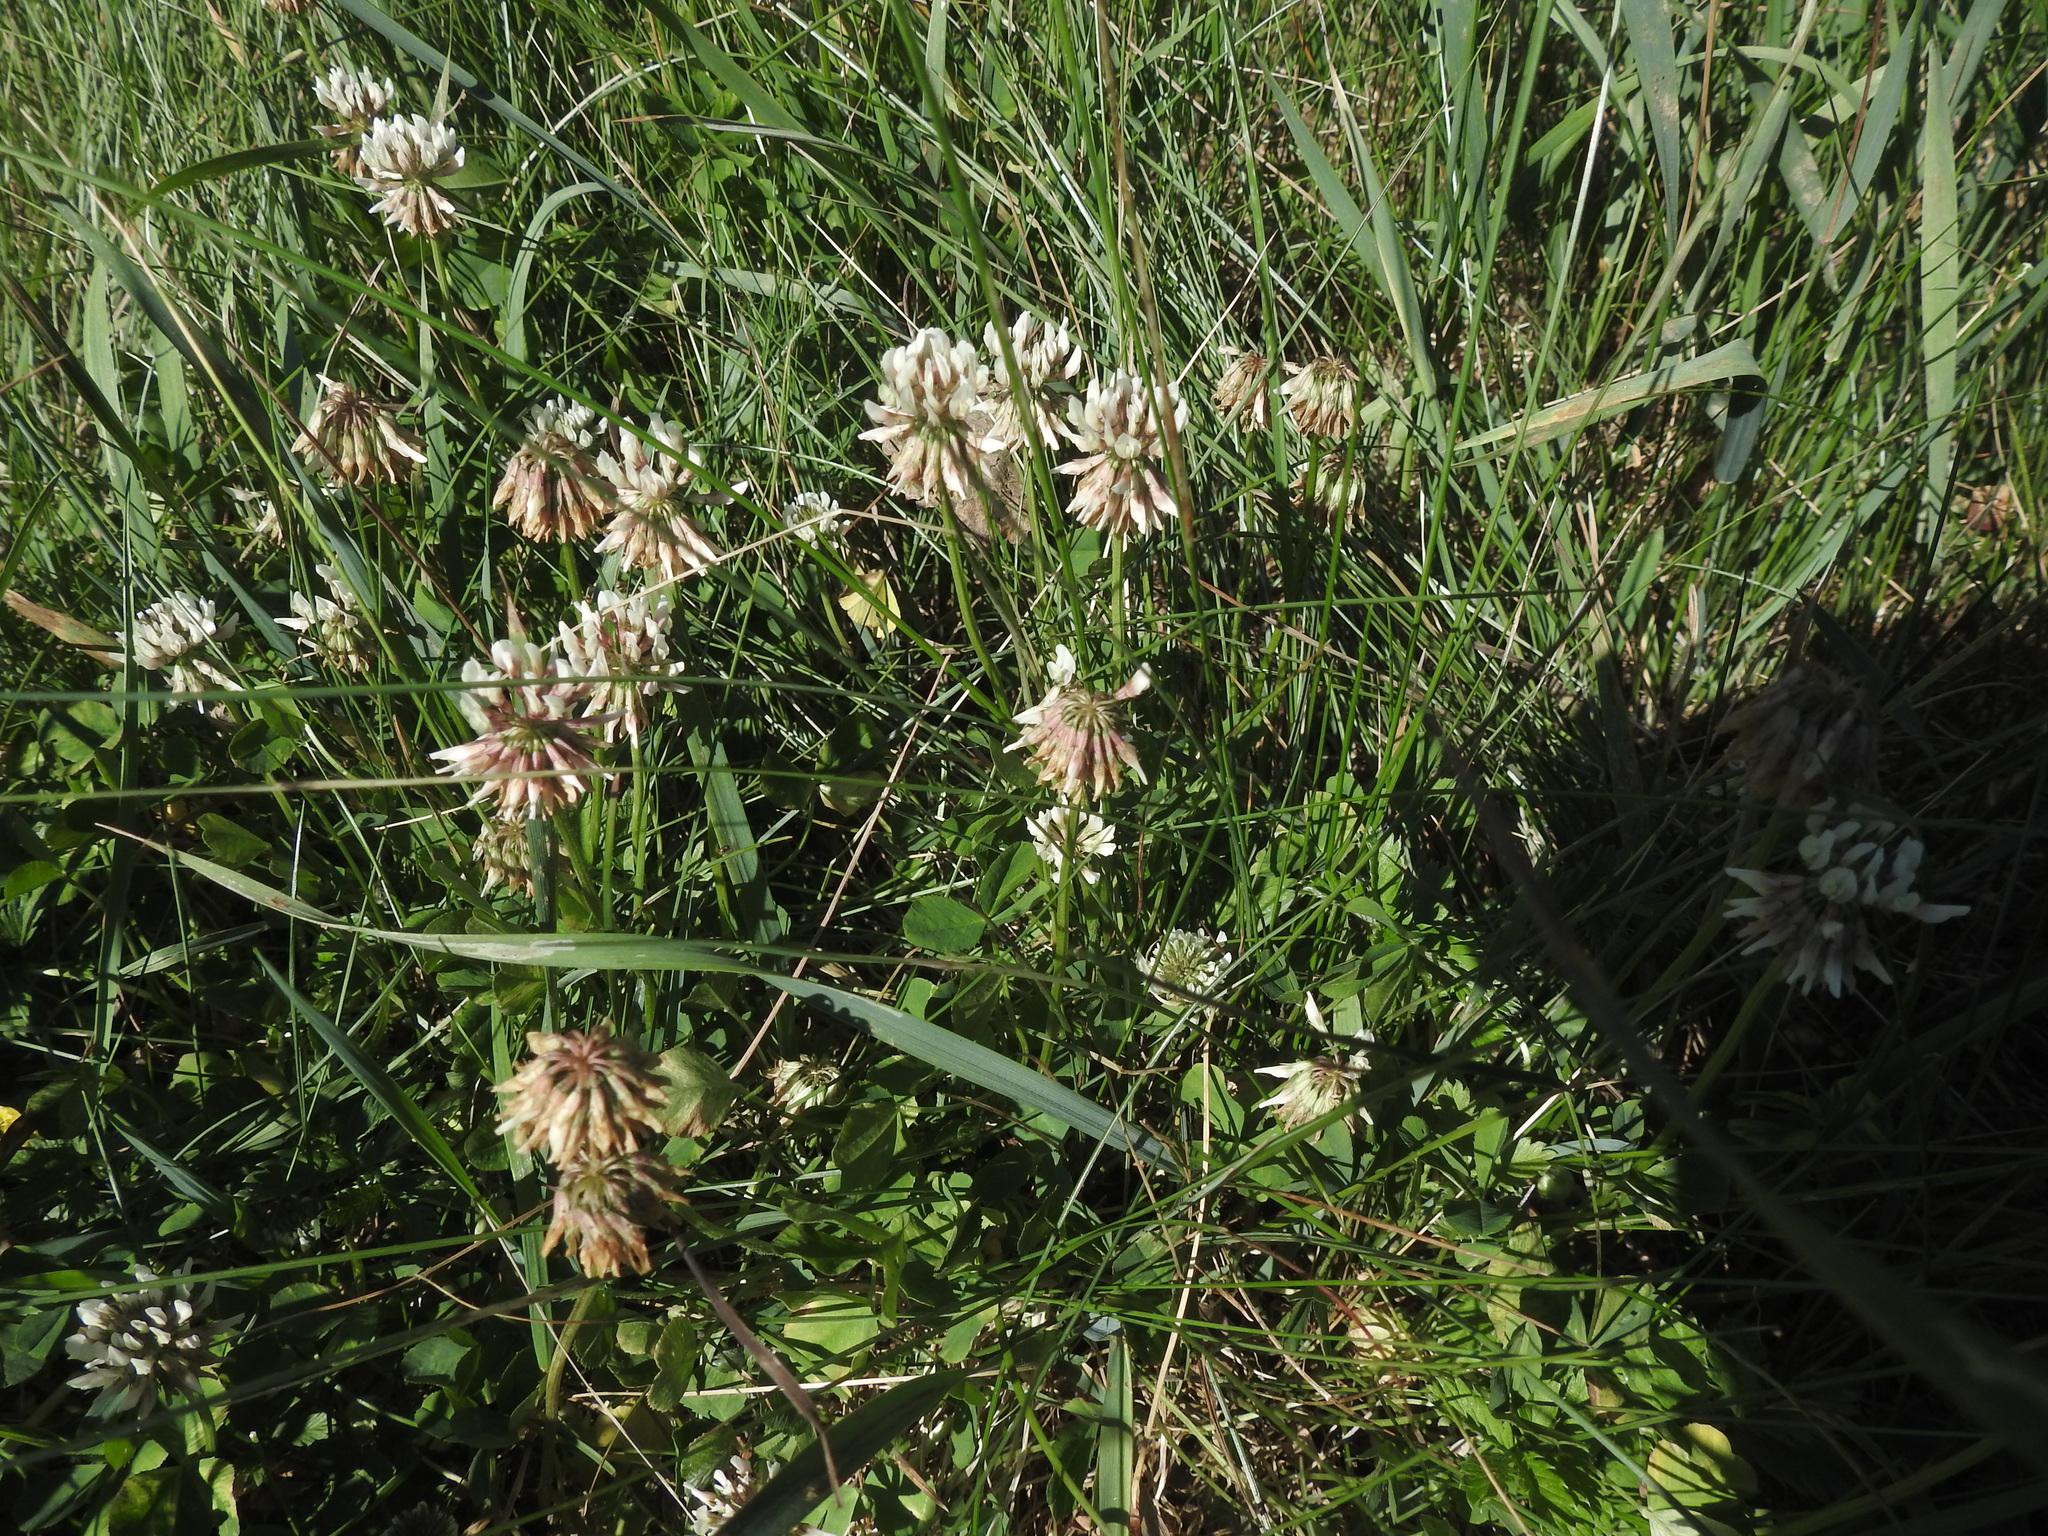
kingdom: Plantae
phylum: Tracheophyta
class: Magnoliopsida
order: Fabales
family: Fabaceae
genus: Trifolium
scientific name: Trifolium repens
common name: White clover
